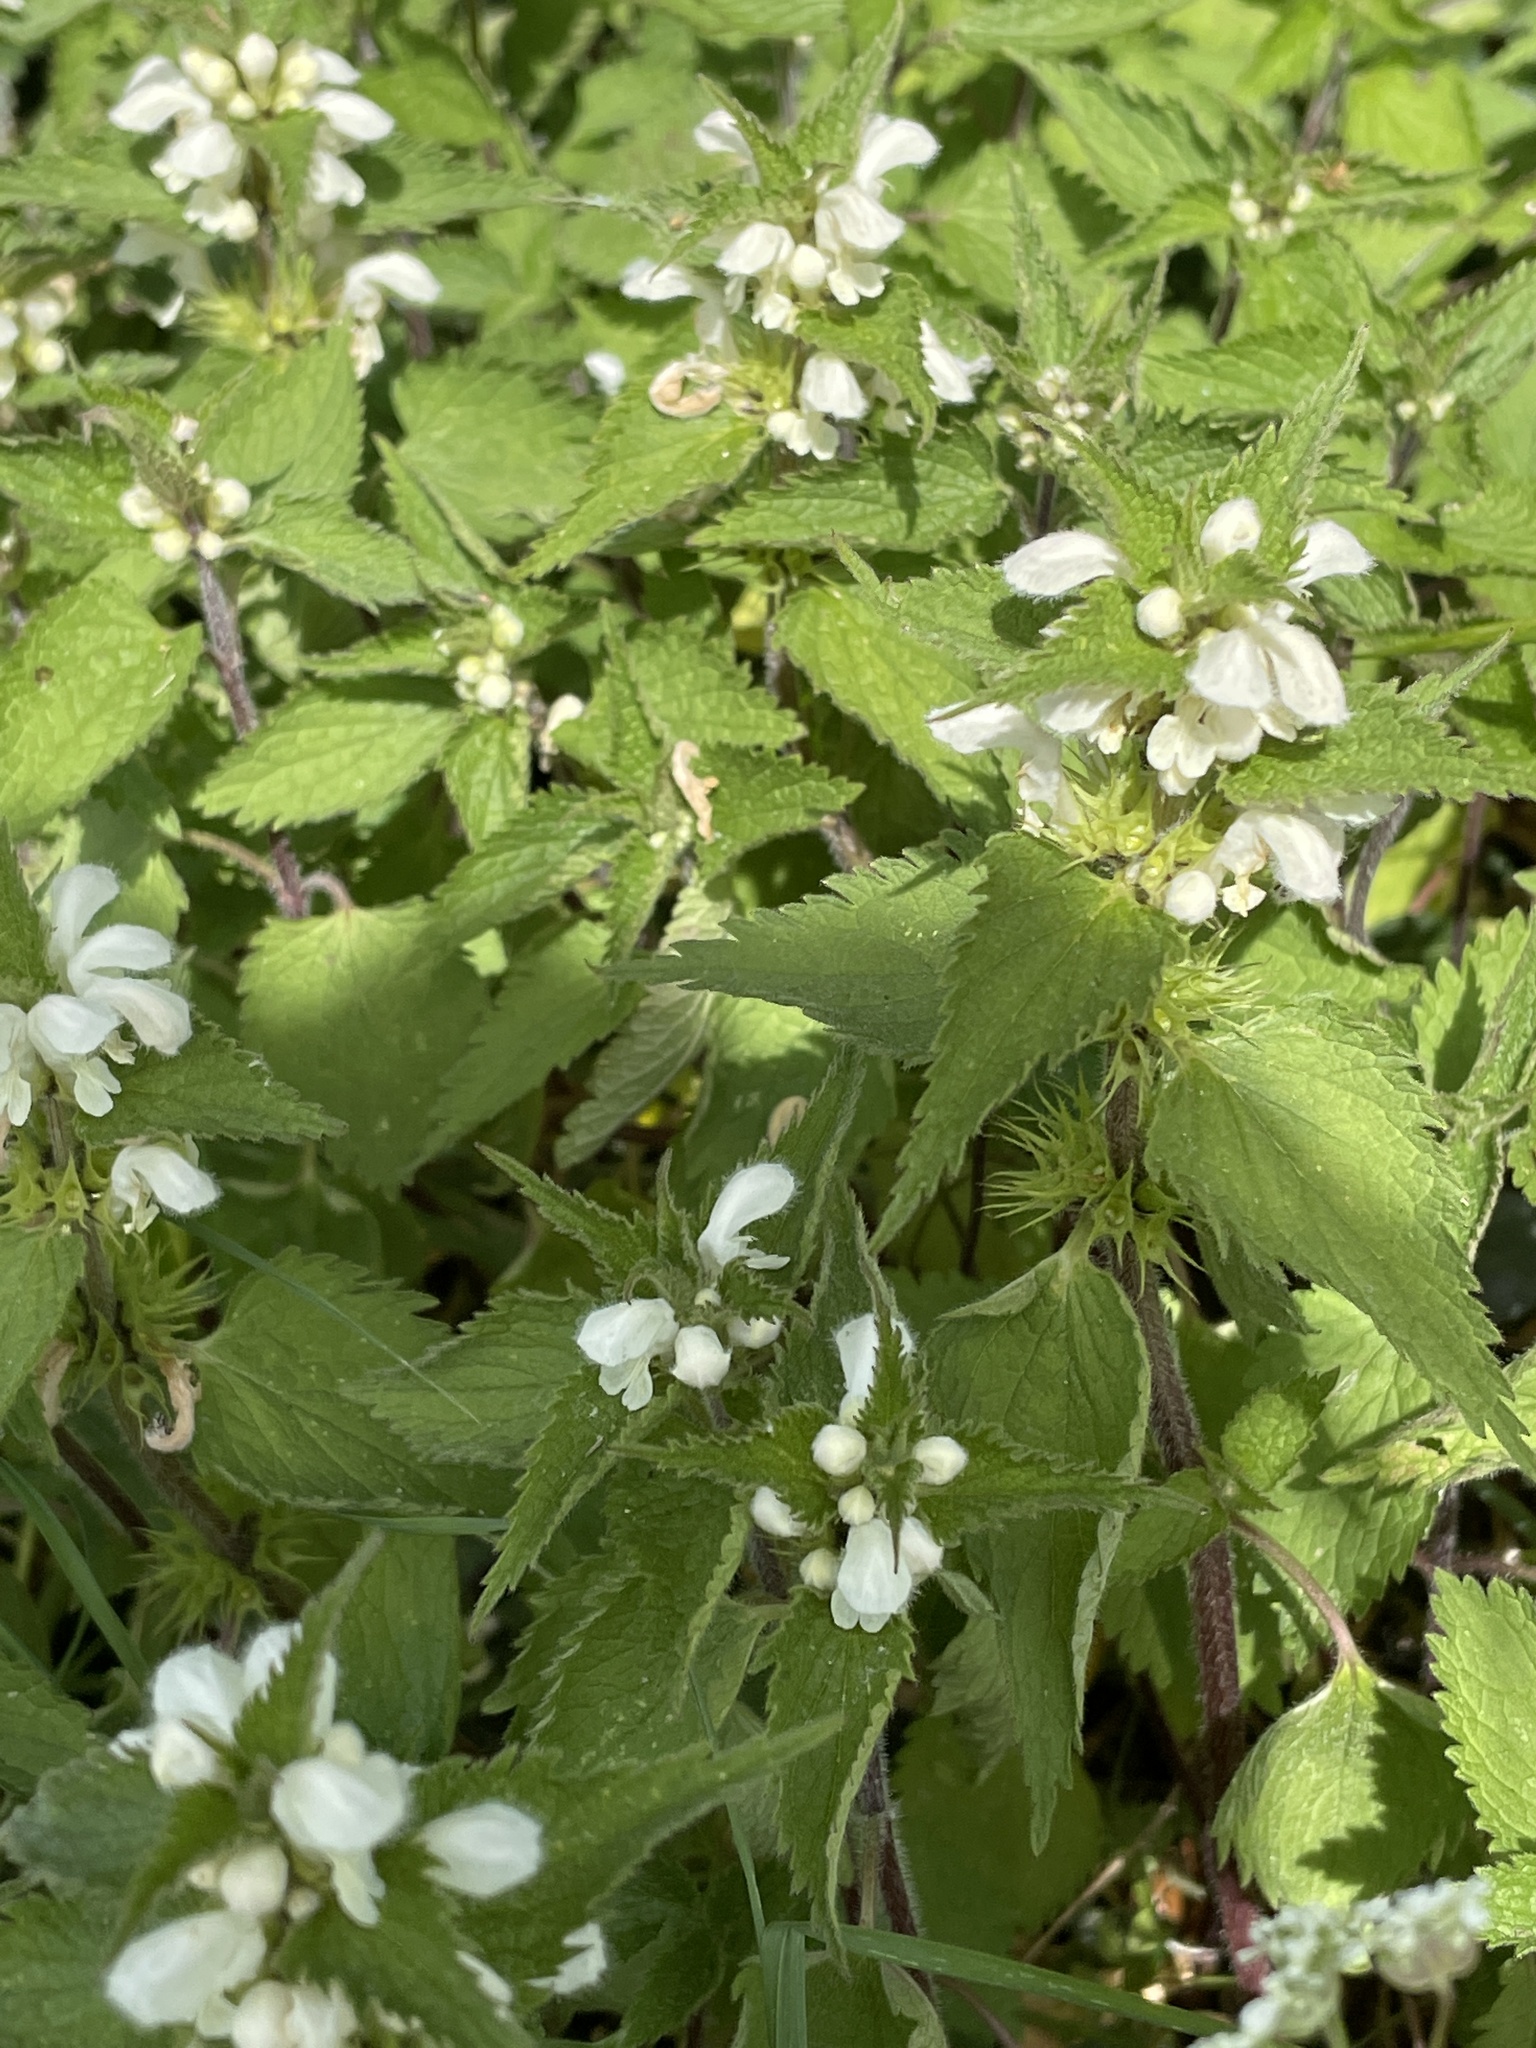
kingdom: Plantae
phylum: Tracheophyta
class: Magnoliopsida
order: Lamiales
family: Lamiaceae
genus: Lamium
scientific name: Lamium album
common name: White dead-nettle
